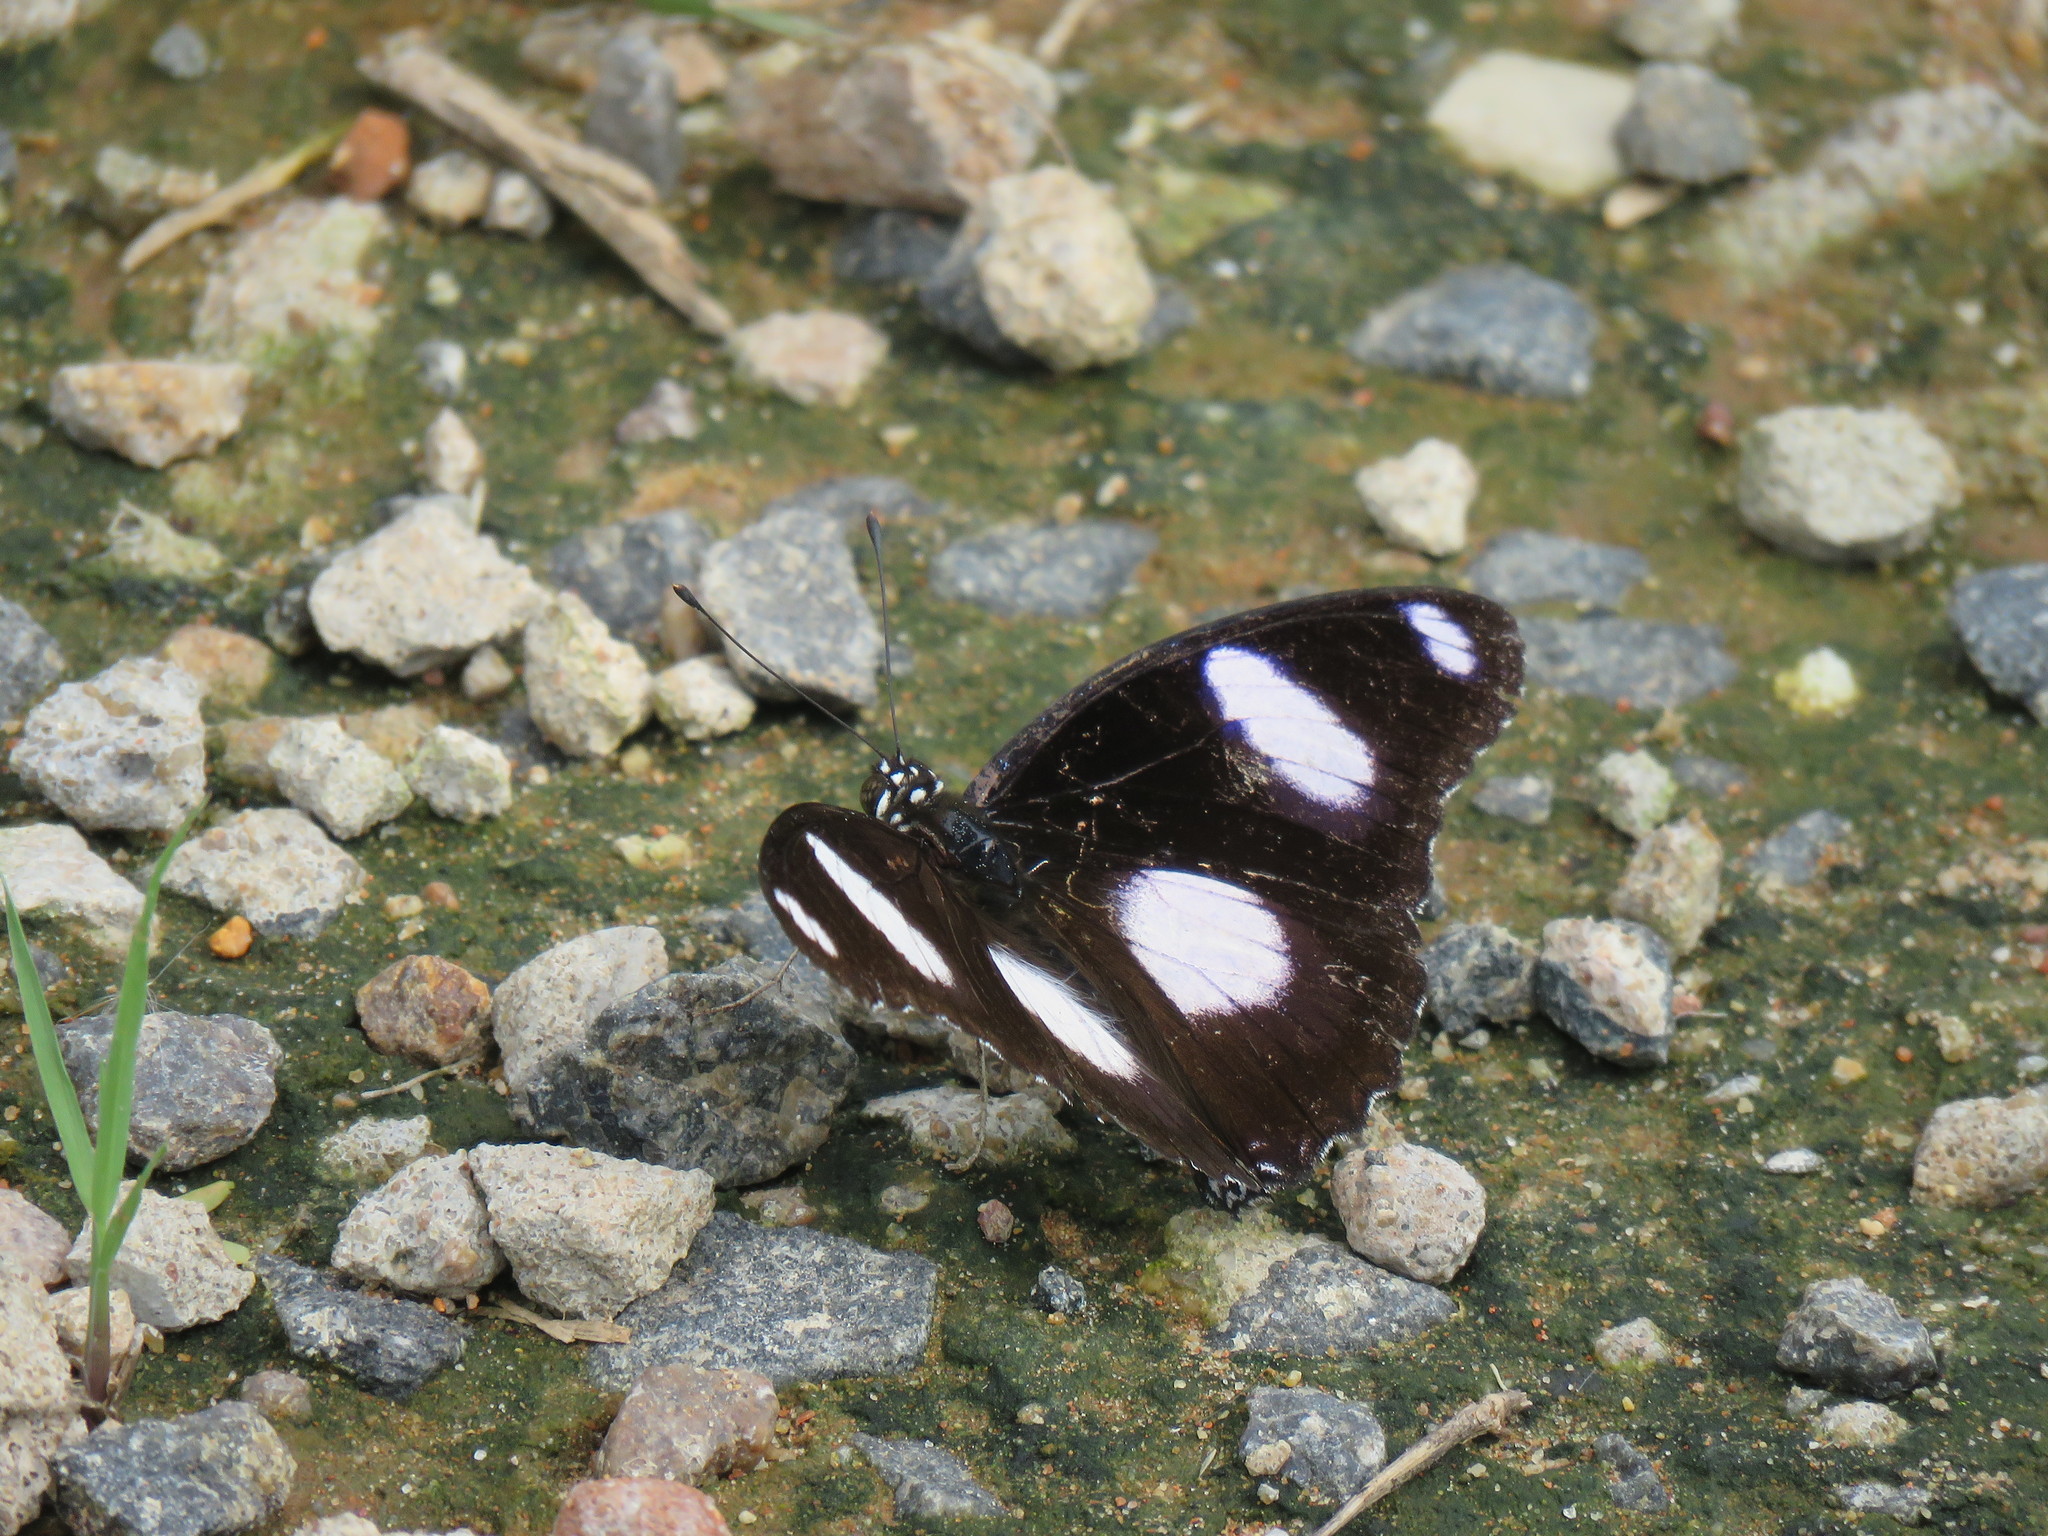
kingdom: Animalia
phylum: Arthropoda
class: Insecta
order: Lepidoptera
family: Nymphalidae
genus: Hypolimnas
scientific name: Hypolimnas misippus
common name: False plain tiger
